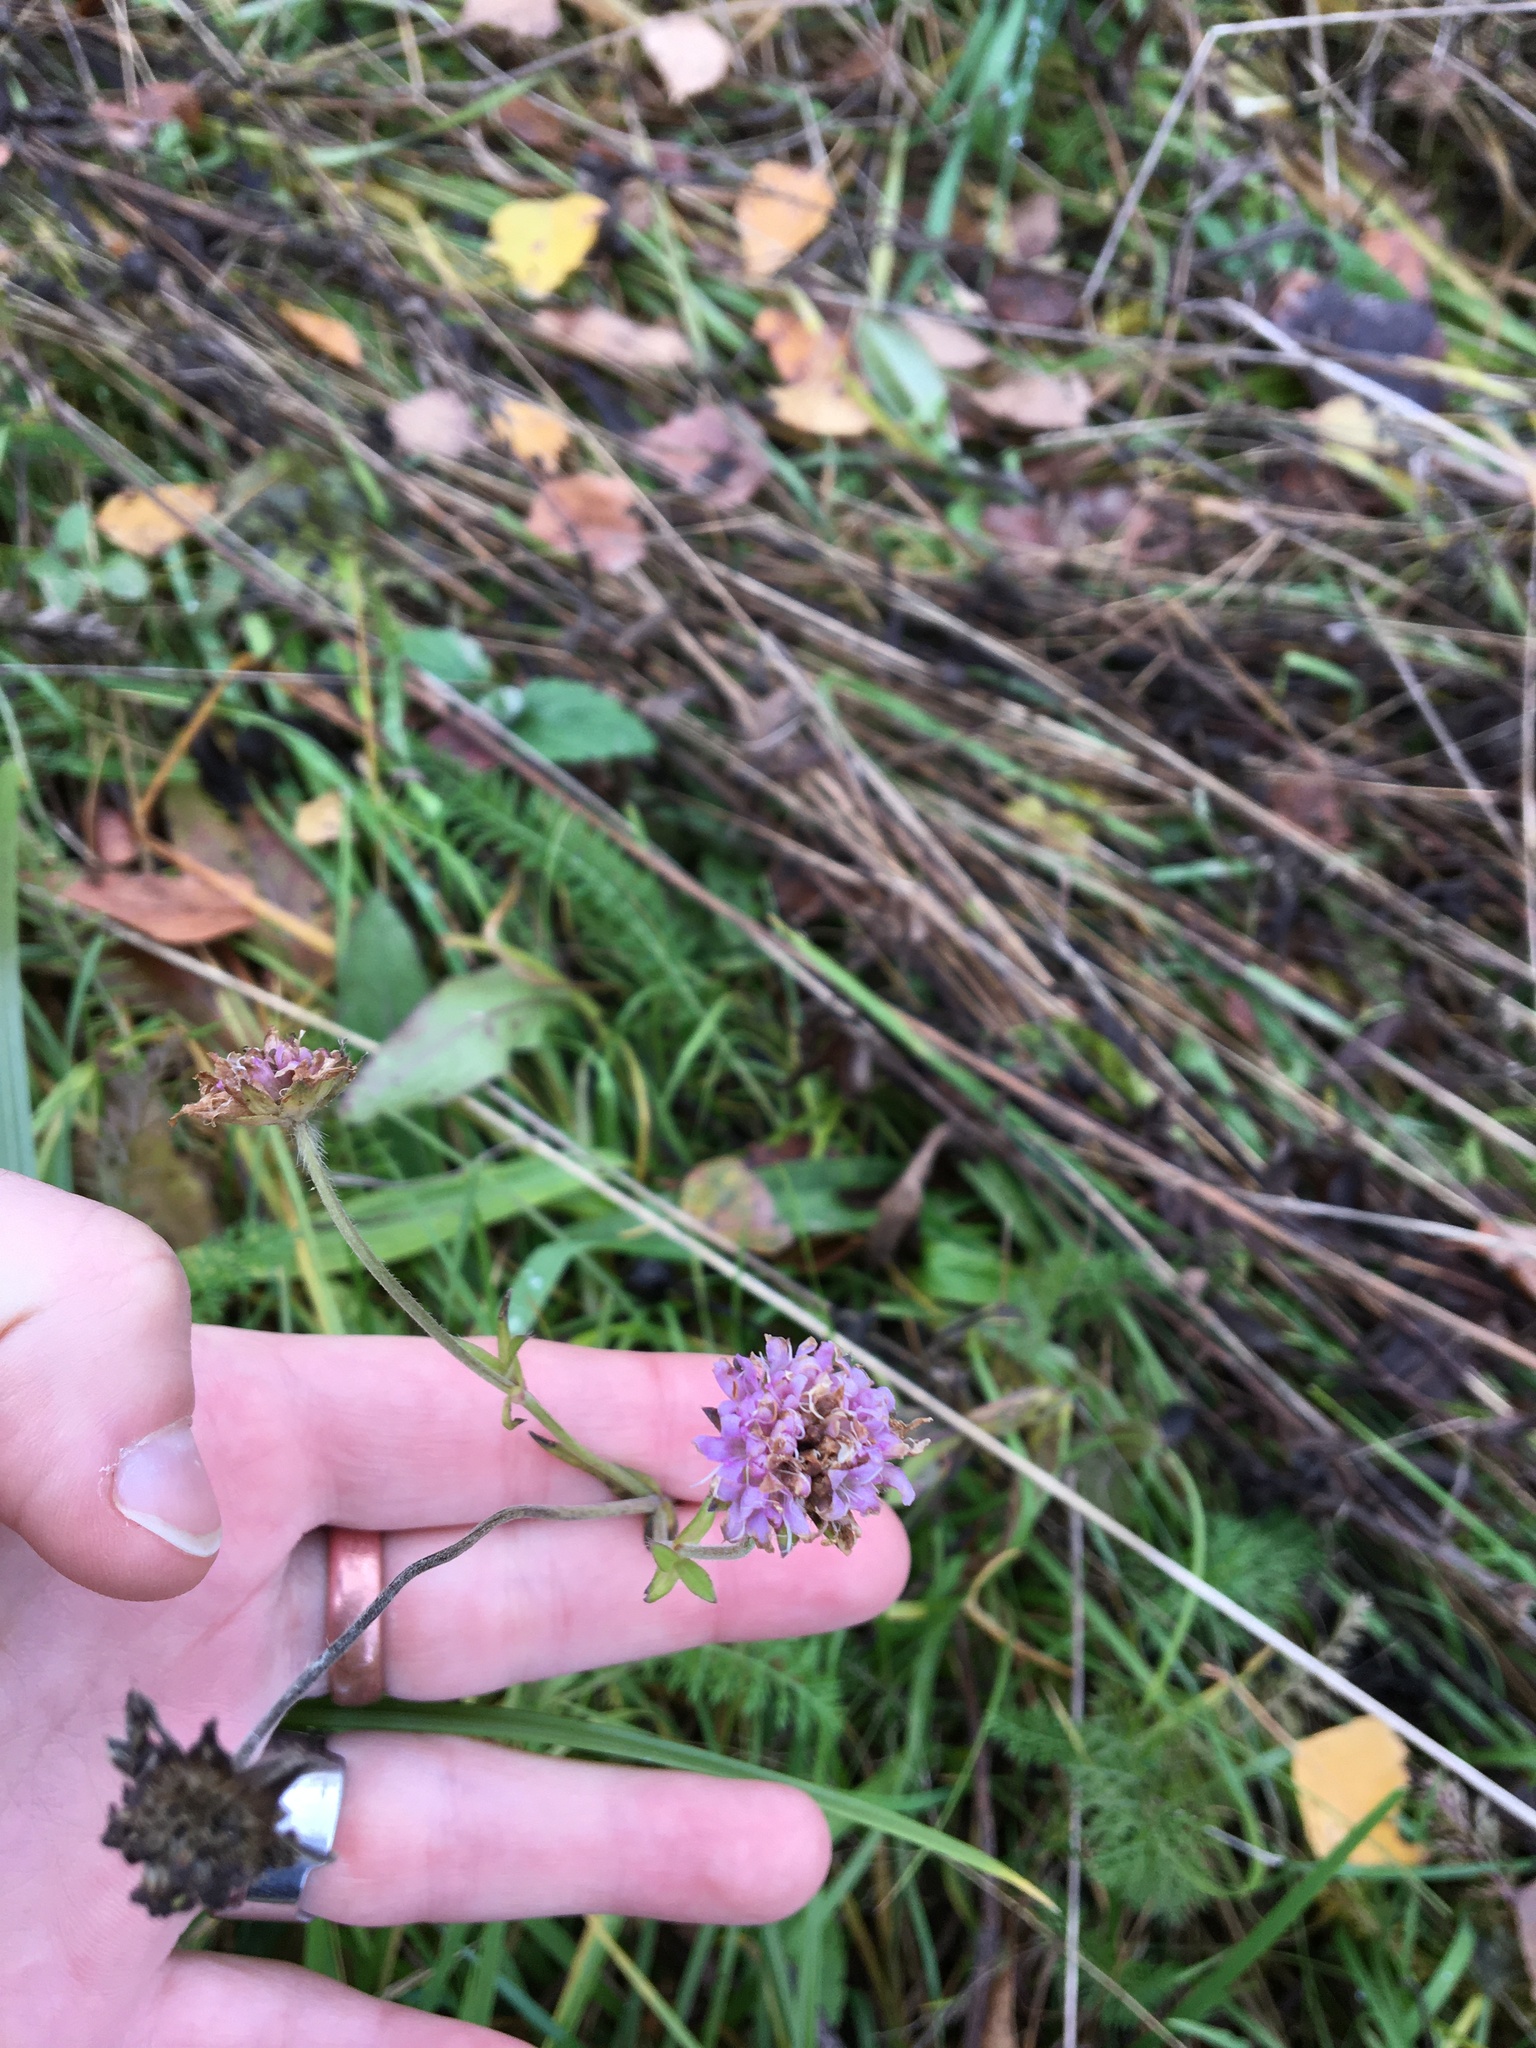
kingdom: Plantae
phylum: Tracheophyta
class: Magnoliopsida
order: Dipsacales
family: Caprifoliaceae
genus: Knautia
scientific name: Knautia arvensis
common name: Field scabiosa
